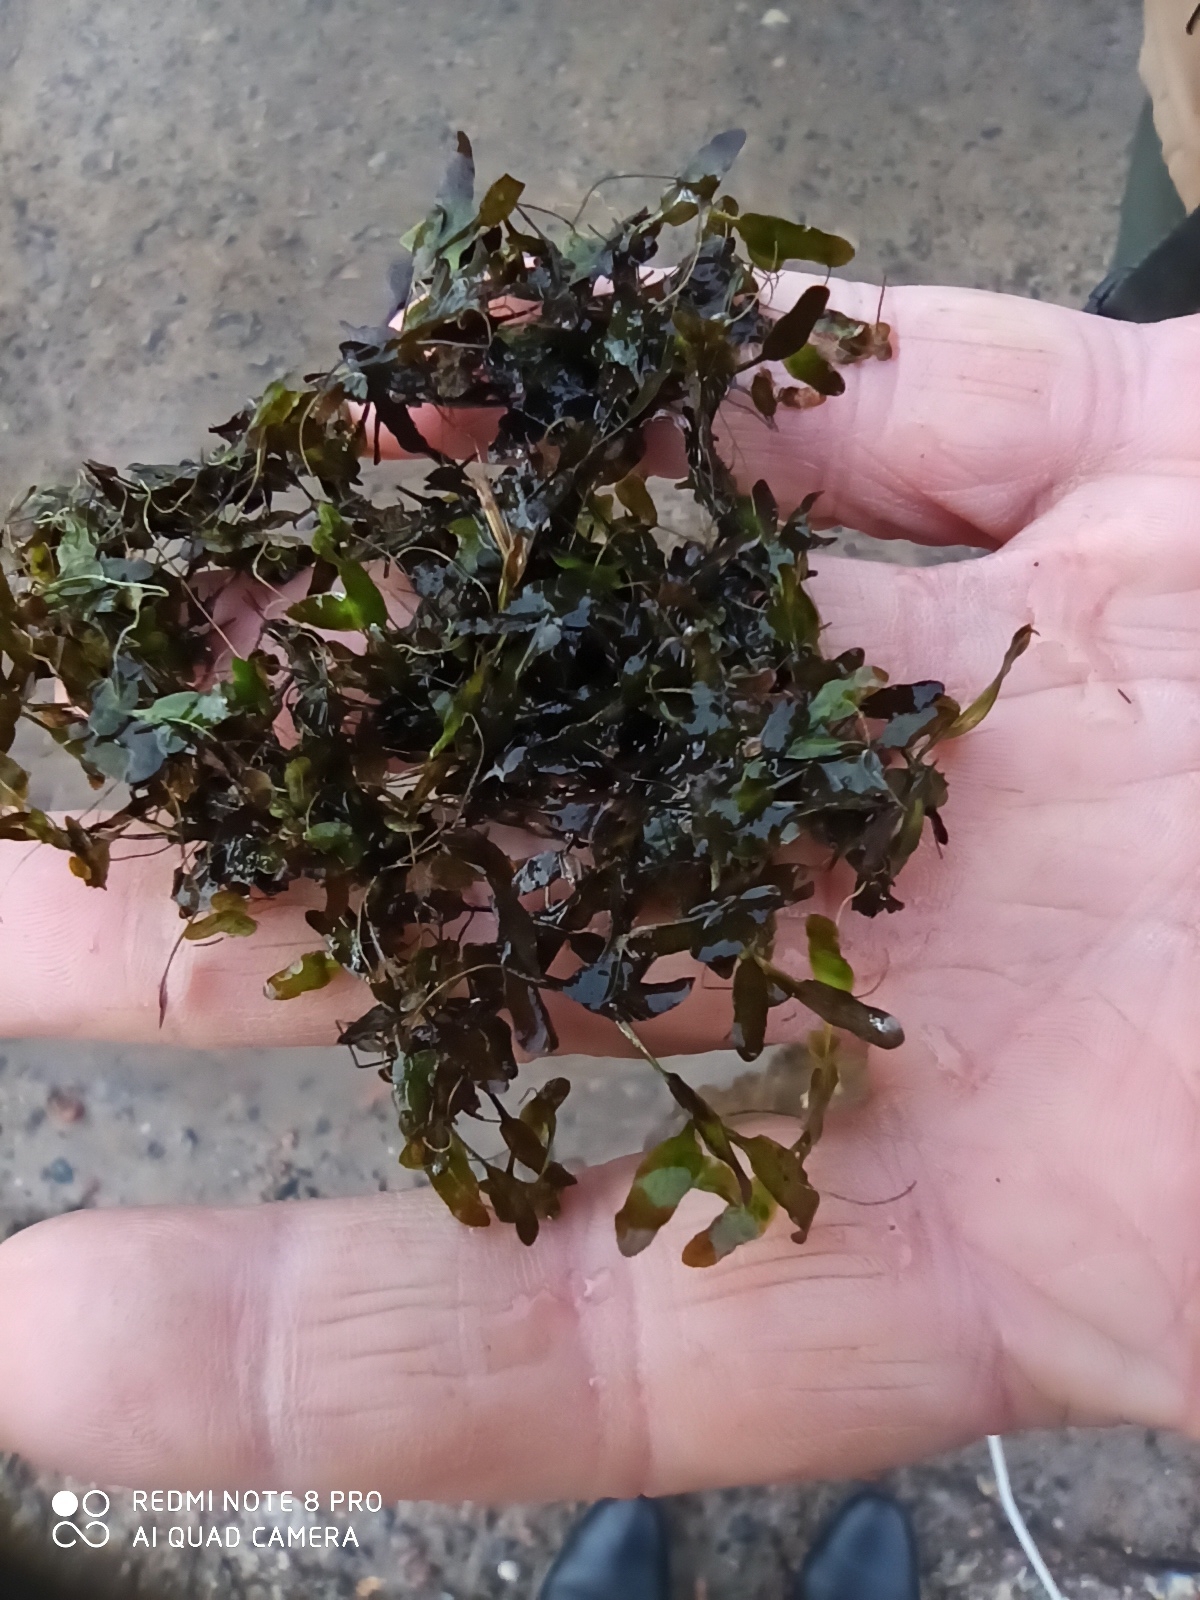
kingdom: Plantae
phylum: Tracheophyta
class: Liliopsida
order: Alismatales
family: Araceae
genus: Lemna
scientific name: Lemna trisulca
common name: Ivy-leaved duckweed
